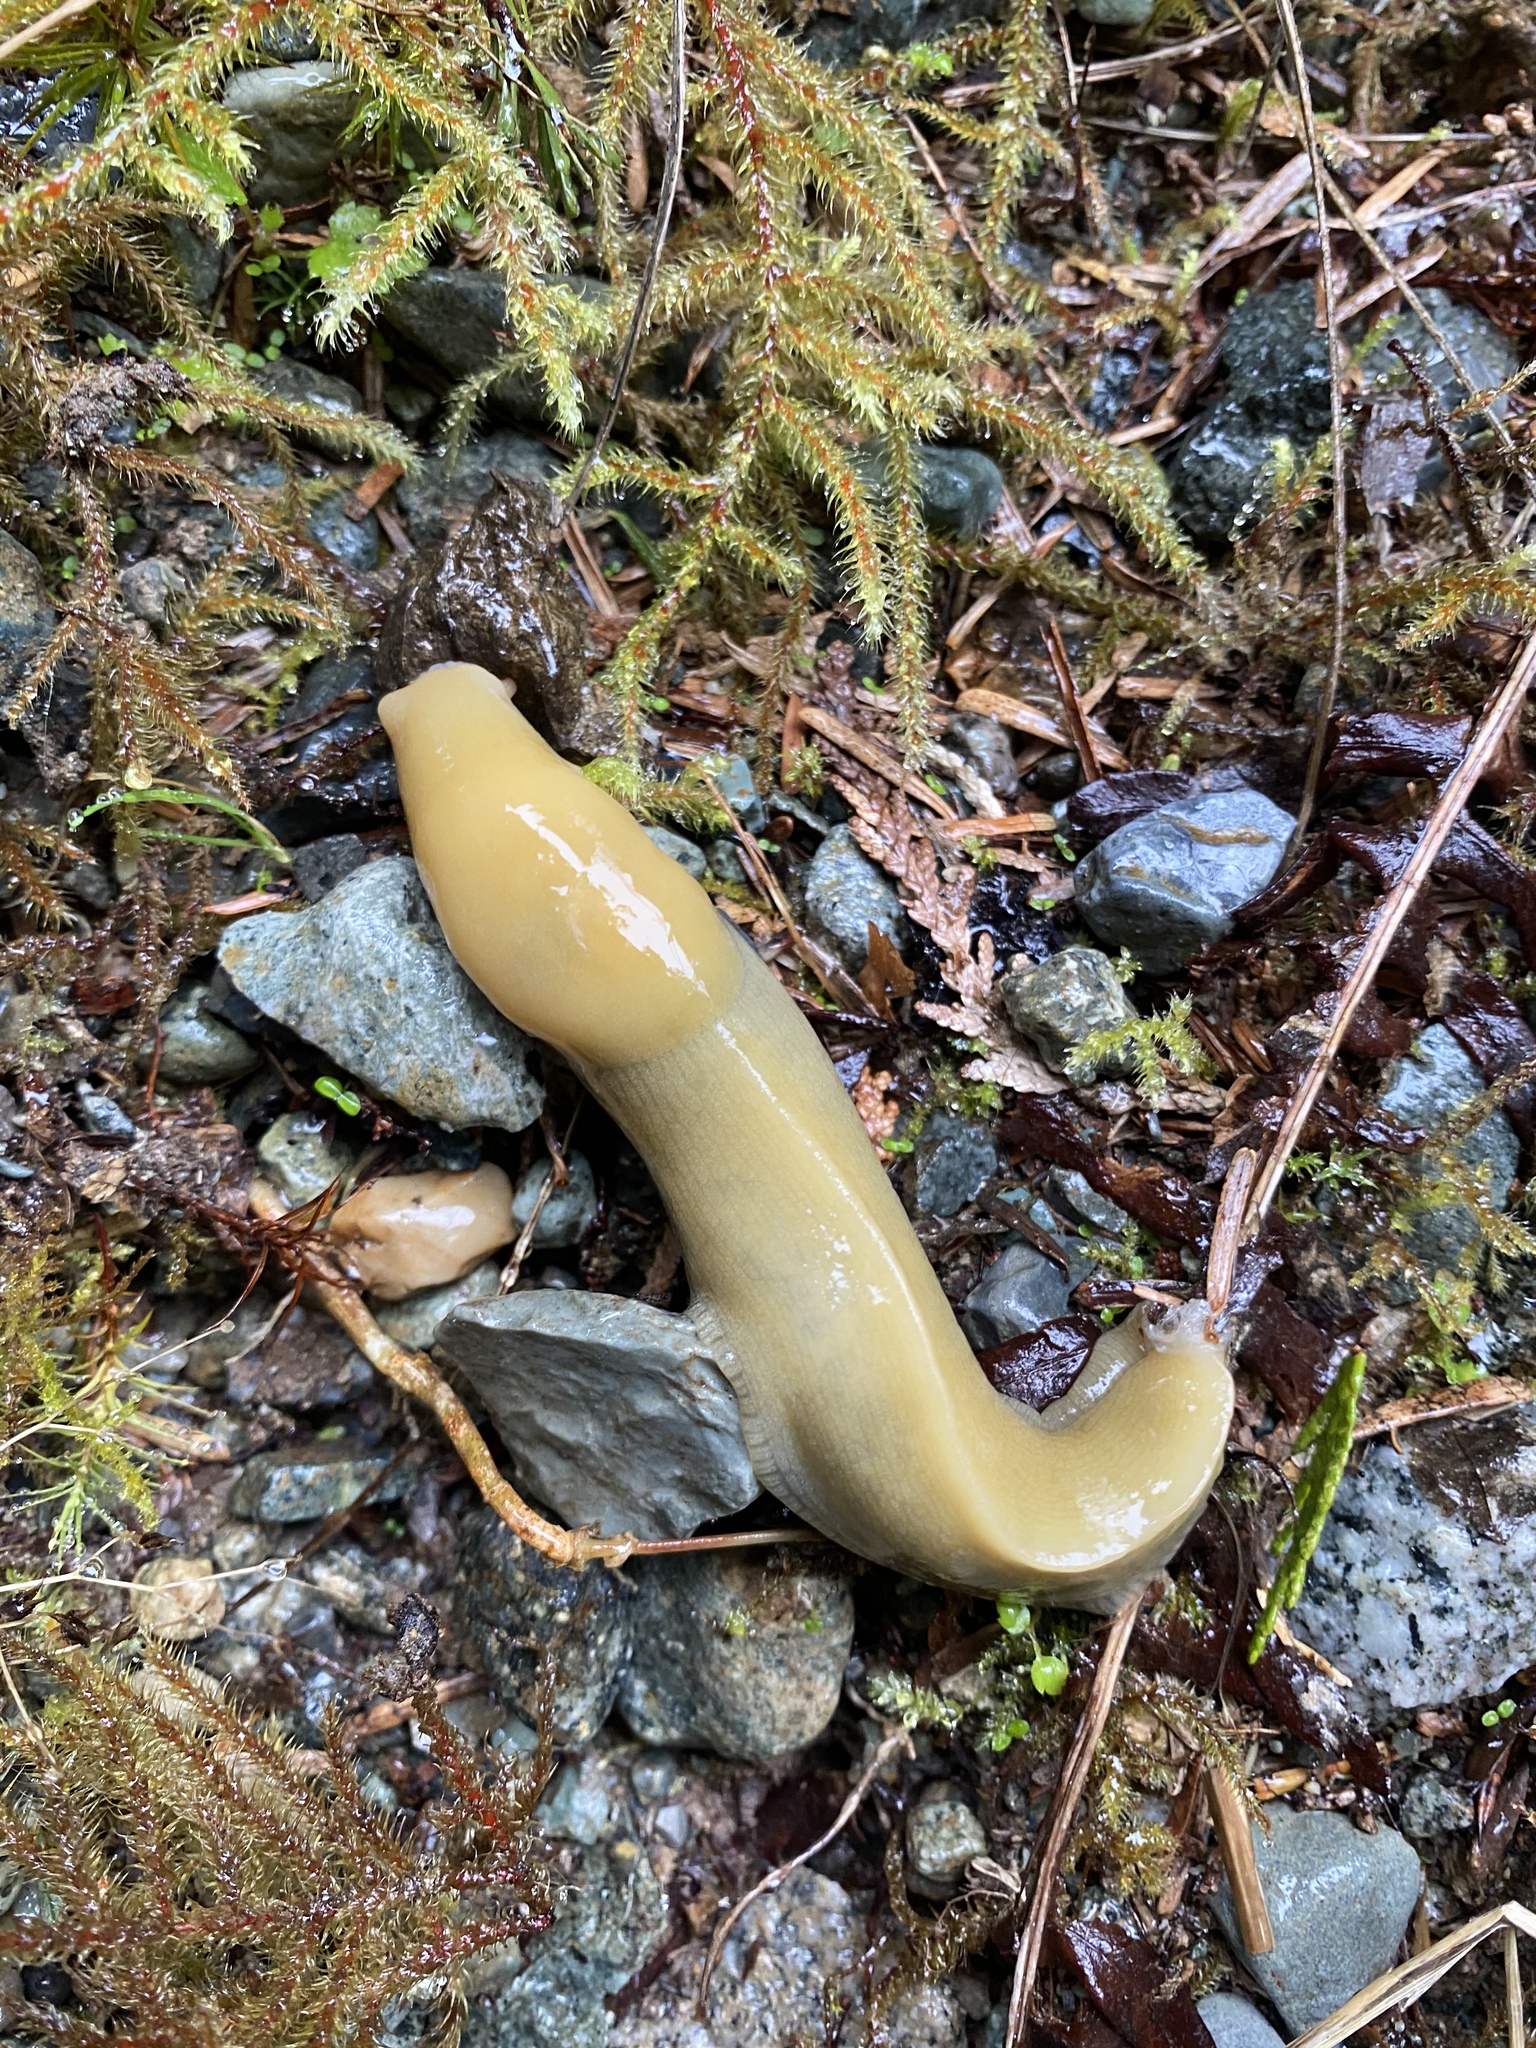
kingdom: Animalia
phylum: Mollusca
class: Gastropoda
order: Stylommatophora
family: Ariolimacidae
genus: Ariolimax
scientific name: Ariolimax columbianus
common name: Pacific banana slug
